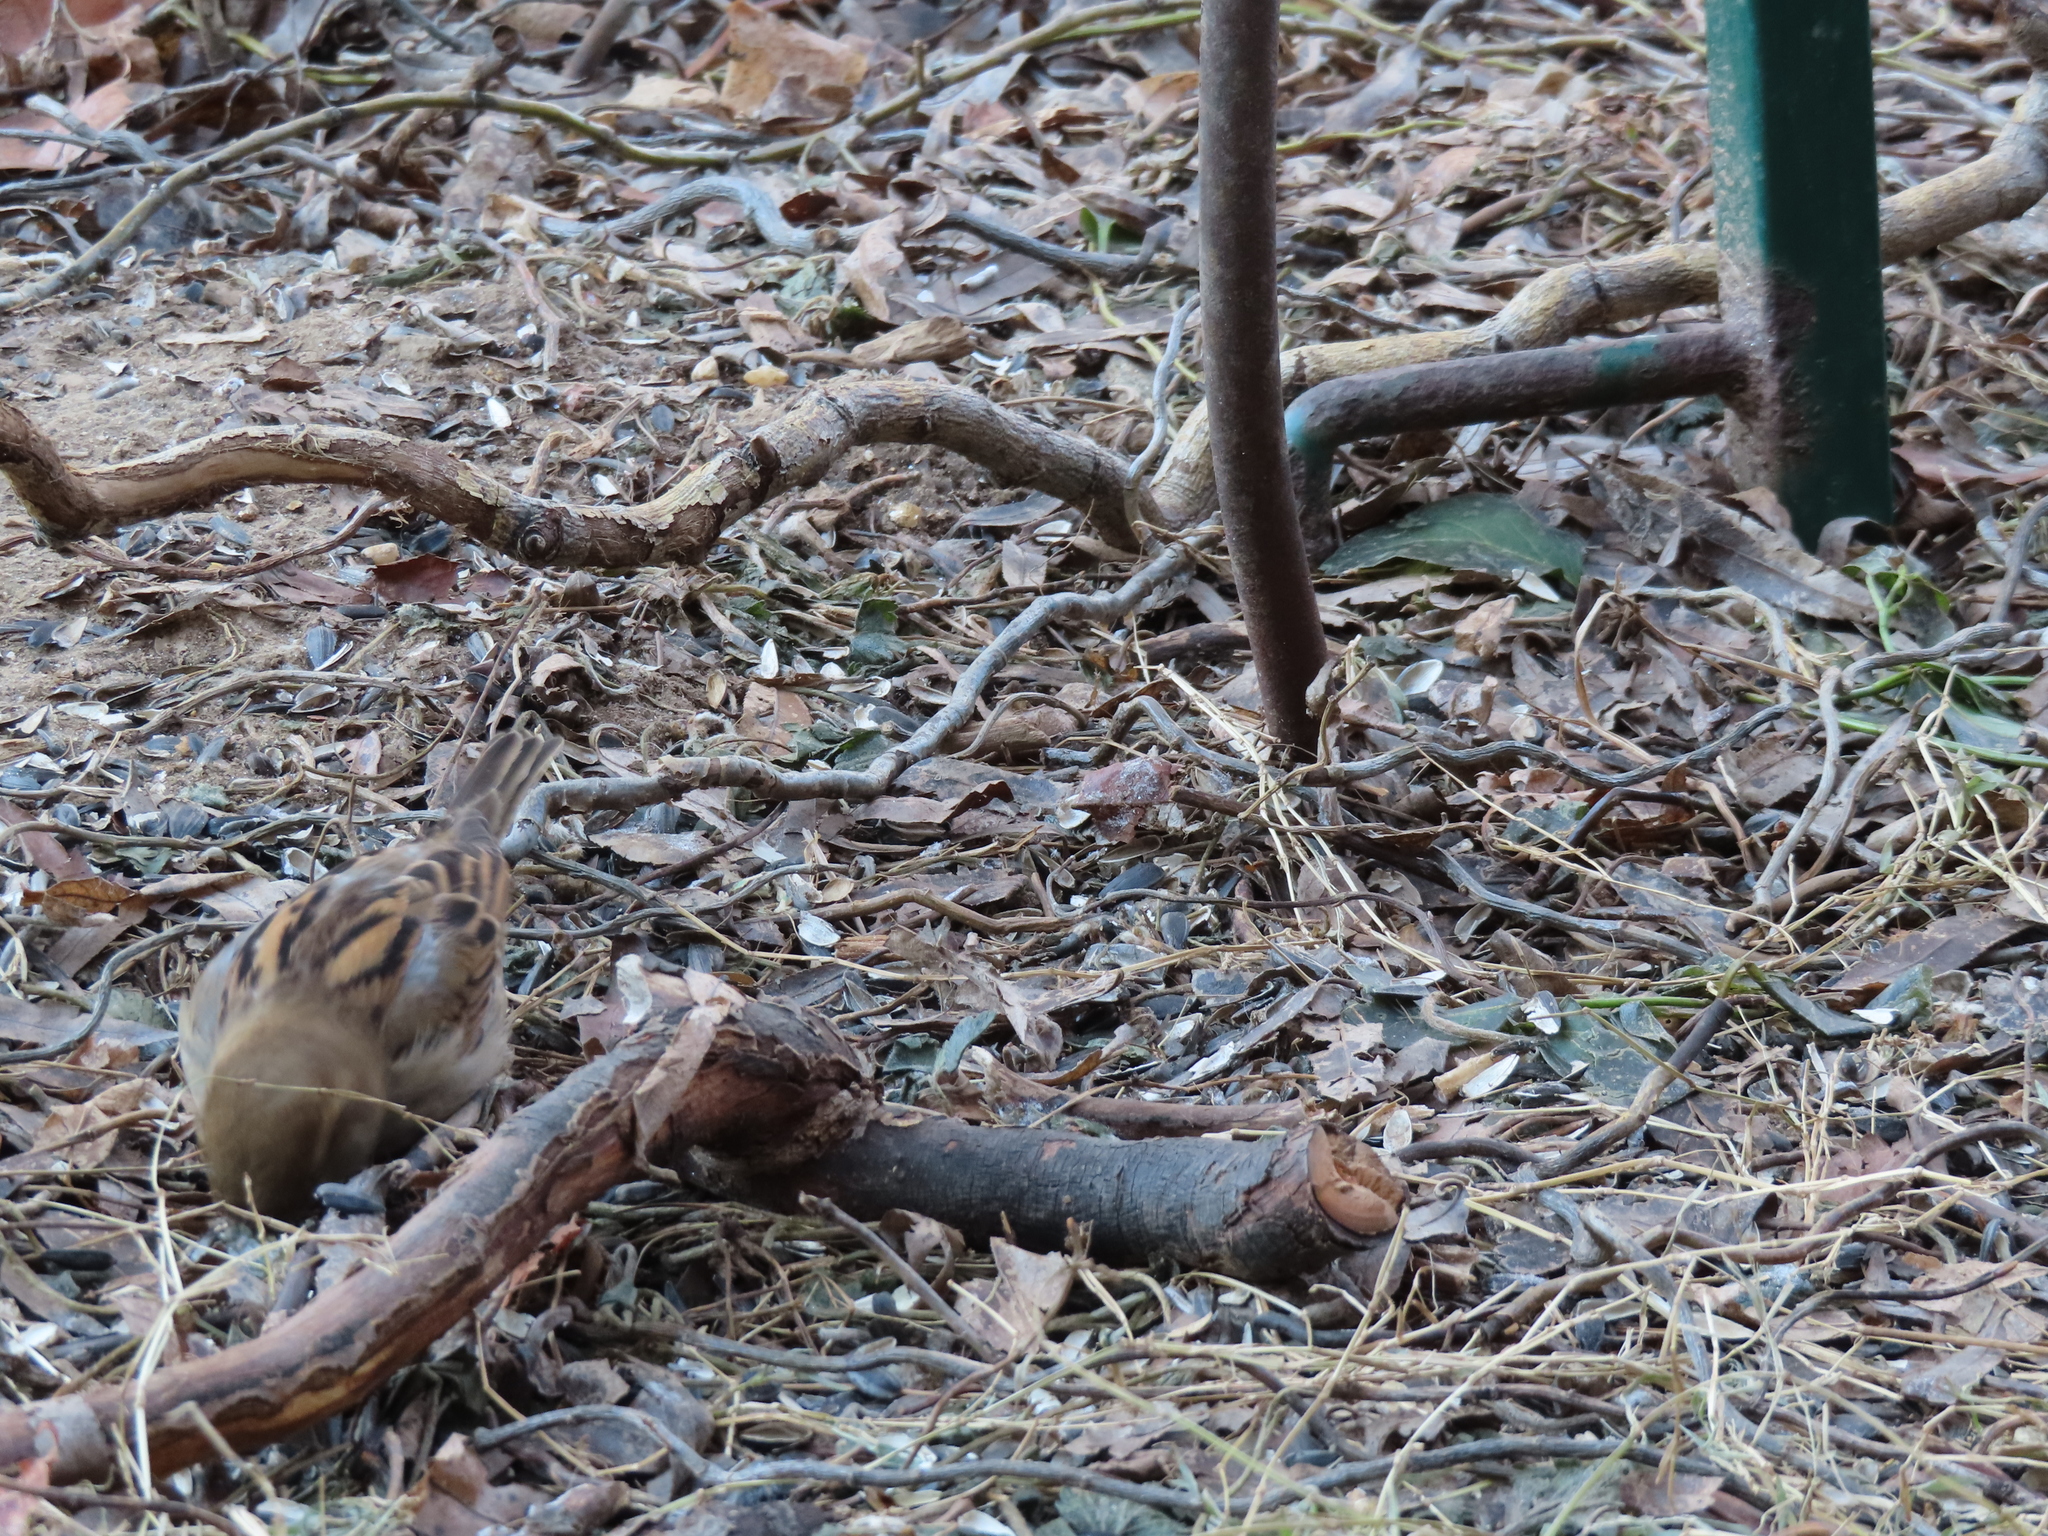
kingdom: Animalia
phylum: Chordata
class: Aves
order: Passeriformes
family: Passeridae
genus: Passer
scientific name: Passer domesticus
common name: House sparrow
